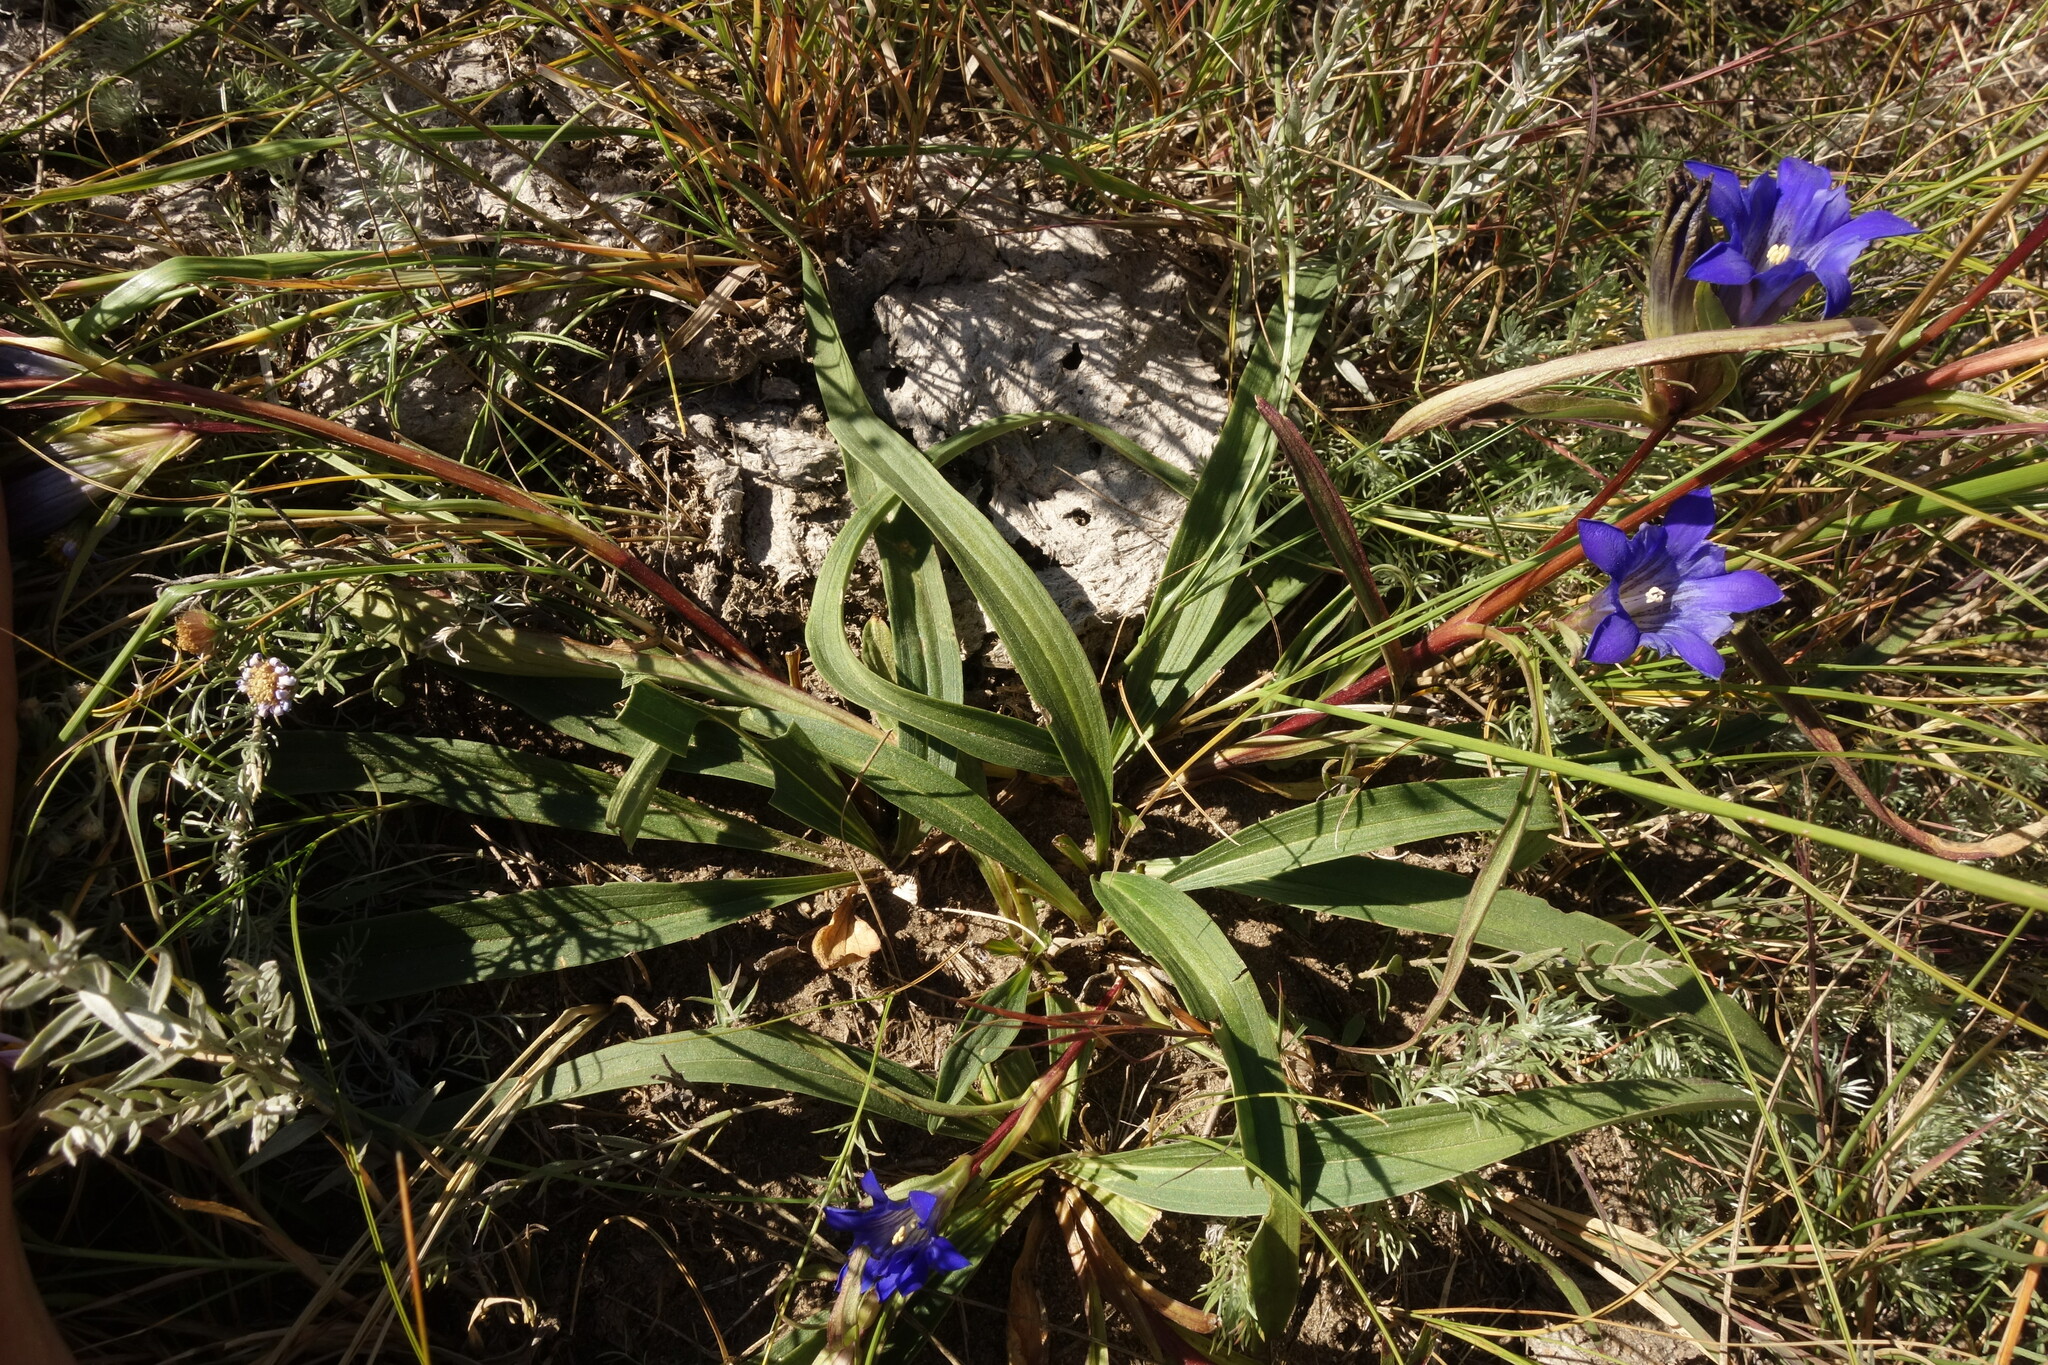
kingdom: Plantae
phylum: Tracheophyta
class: Magnoliopsida
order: Gentianales
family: Gentianaceae
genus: Gentiana
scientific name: Gentiana dahurica
